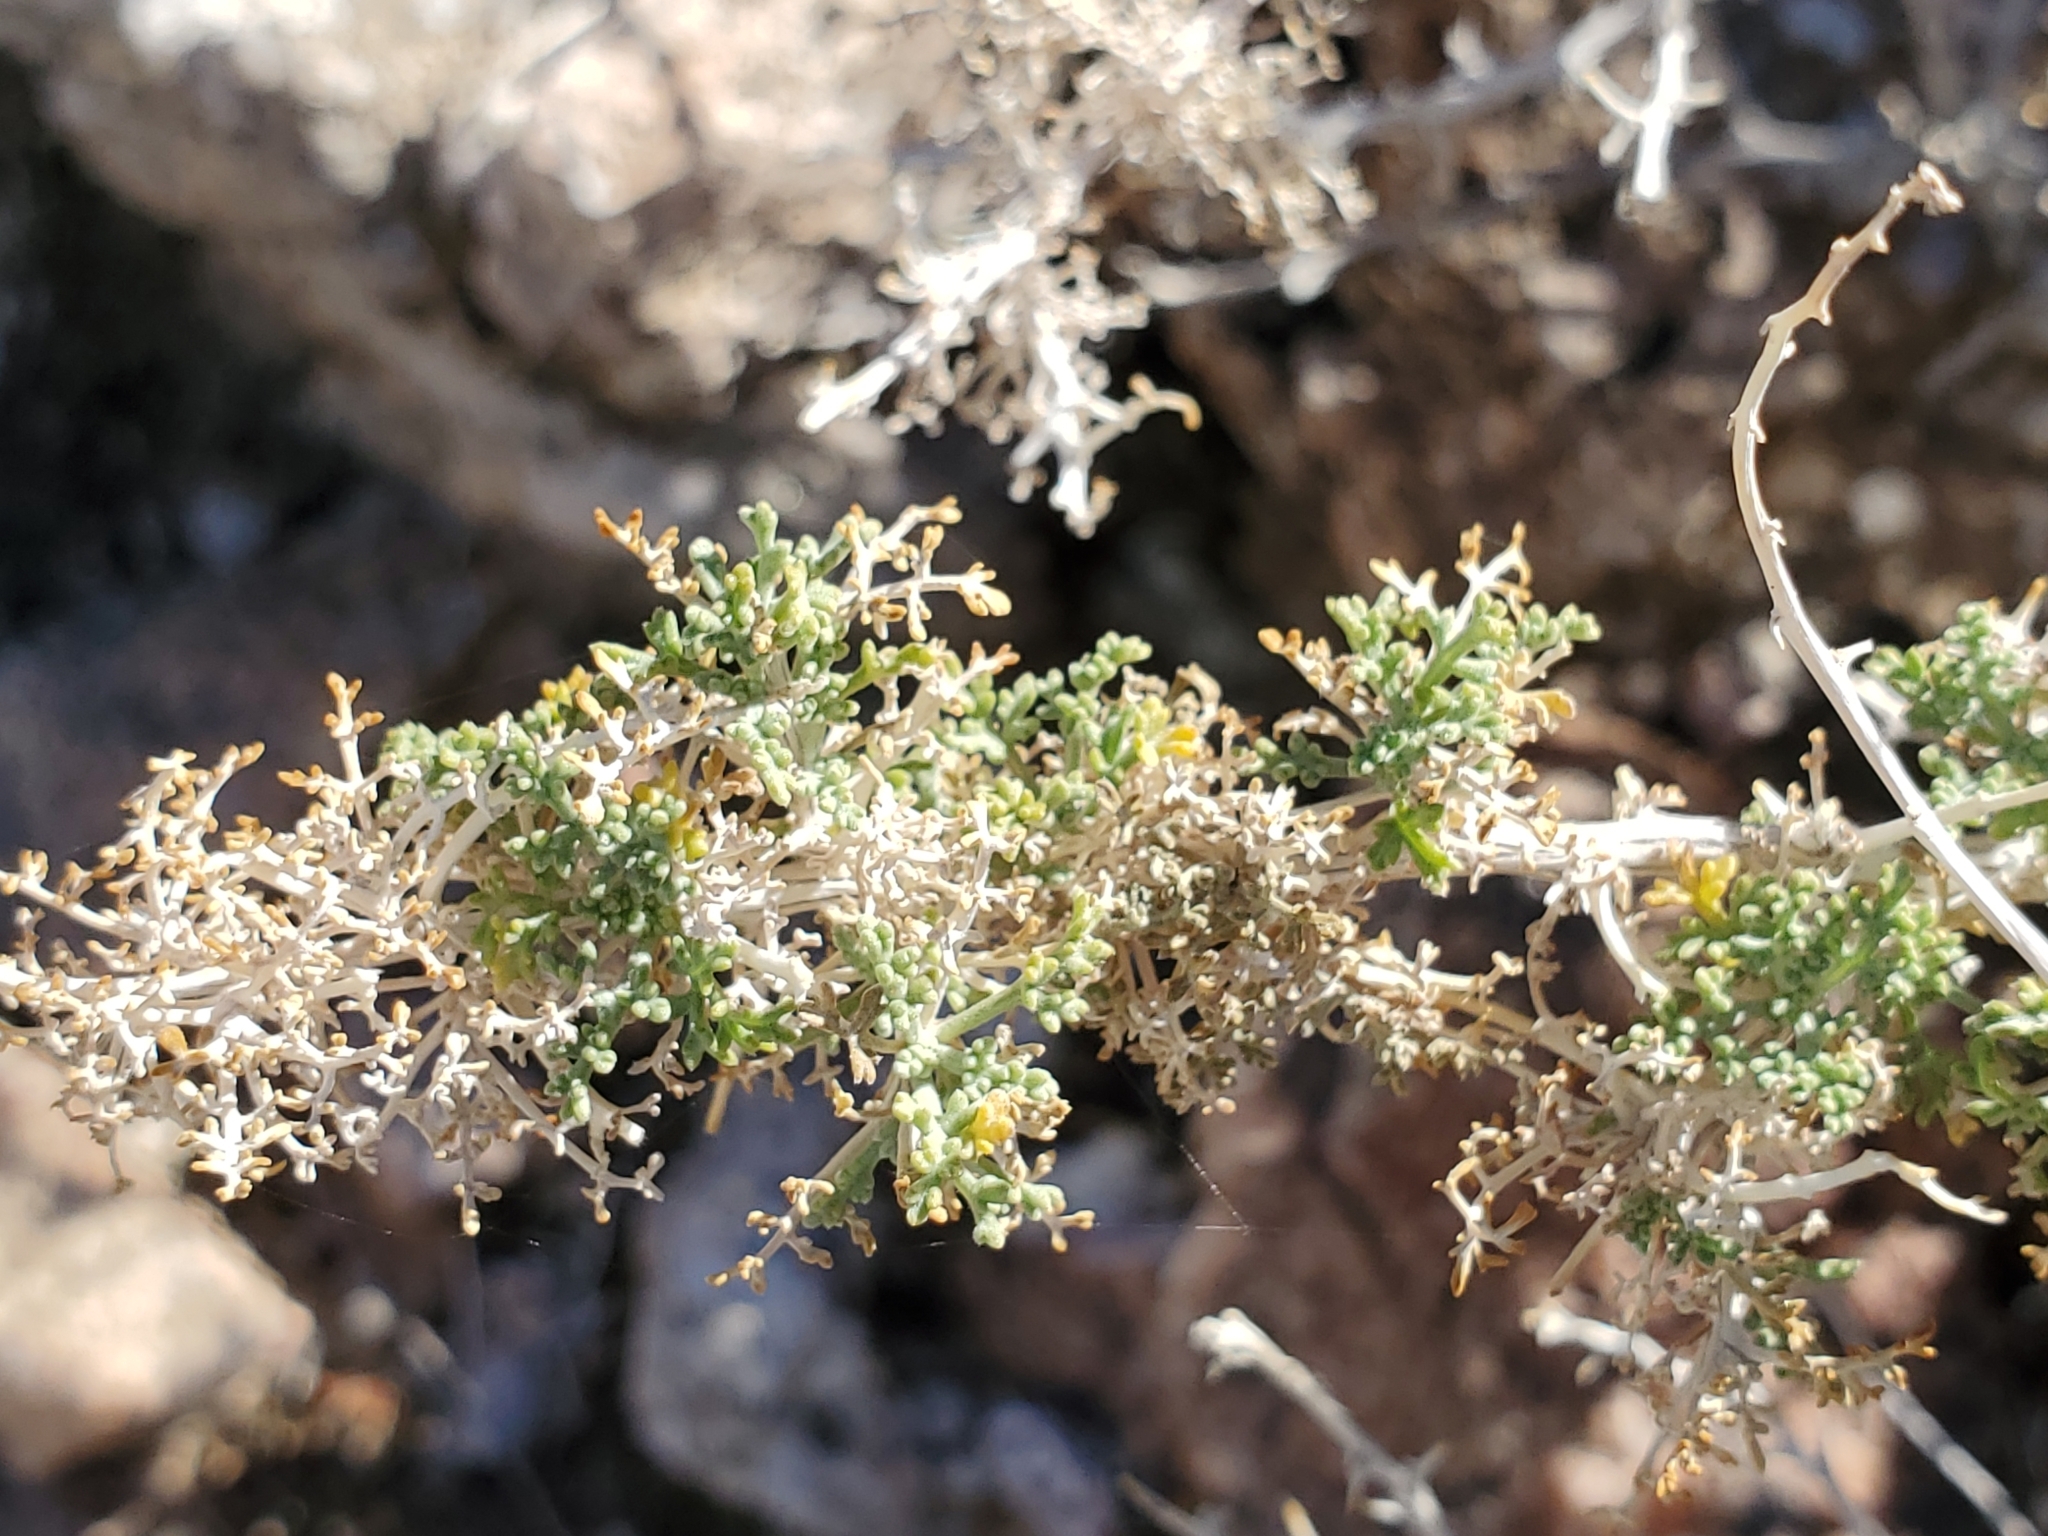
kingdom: Plantae
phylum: Tracheophyta
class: Magnoliopsida
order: Asterales
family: Asteraceae
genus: Ambrosia
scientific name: Ambrosia dumosa
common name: Bur-sage
